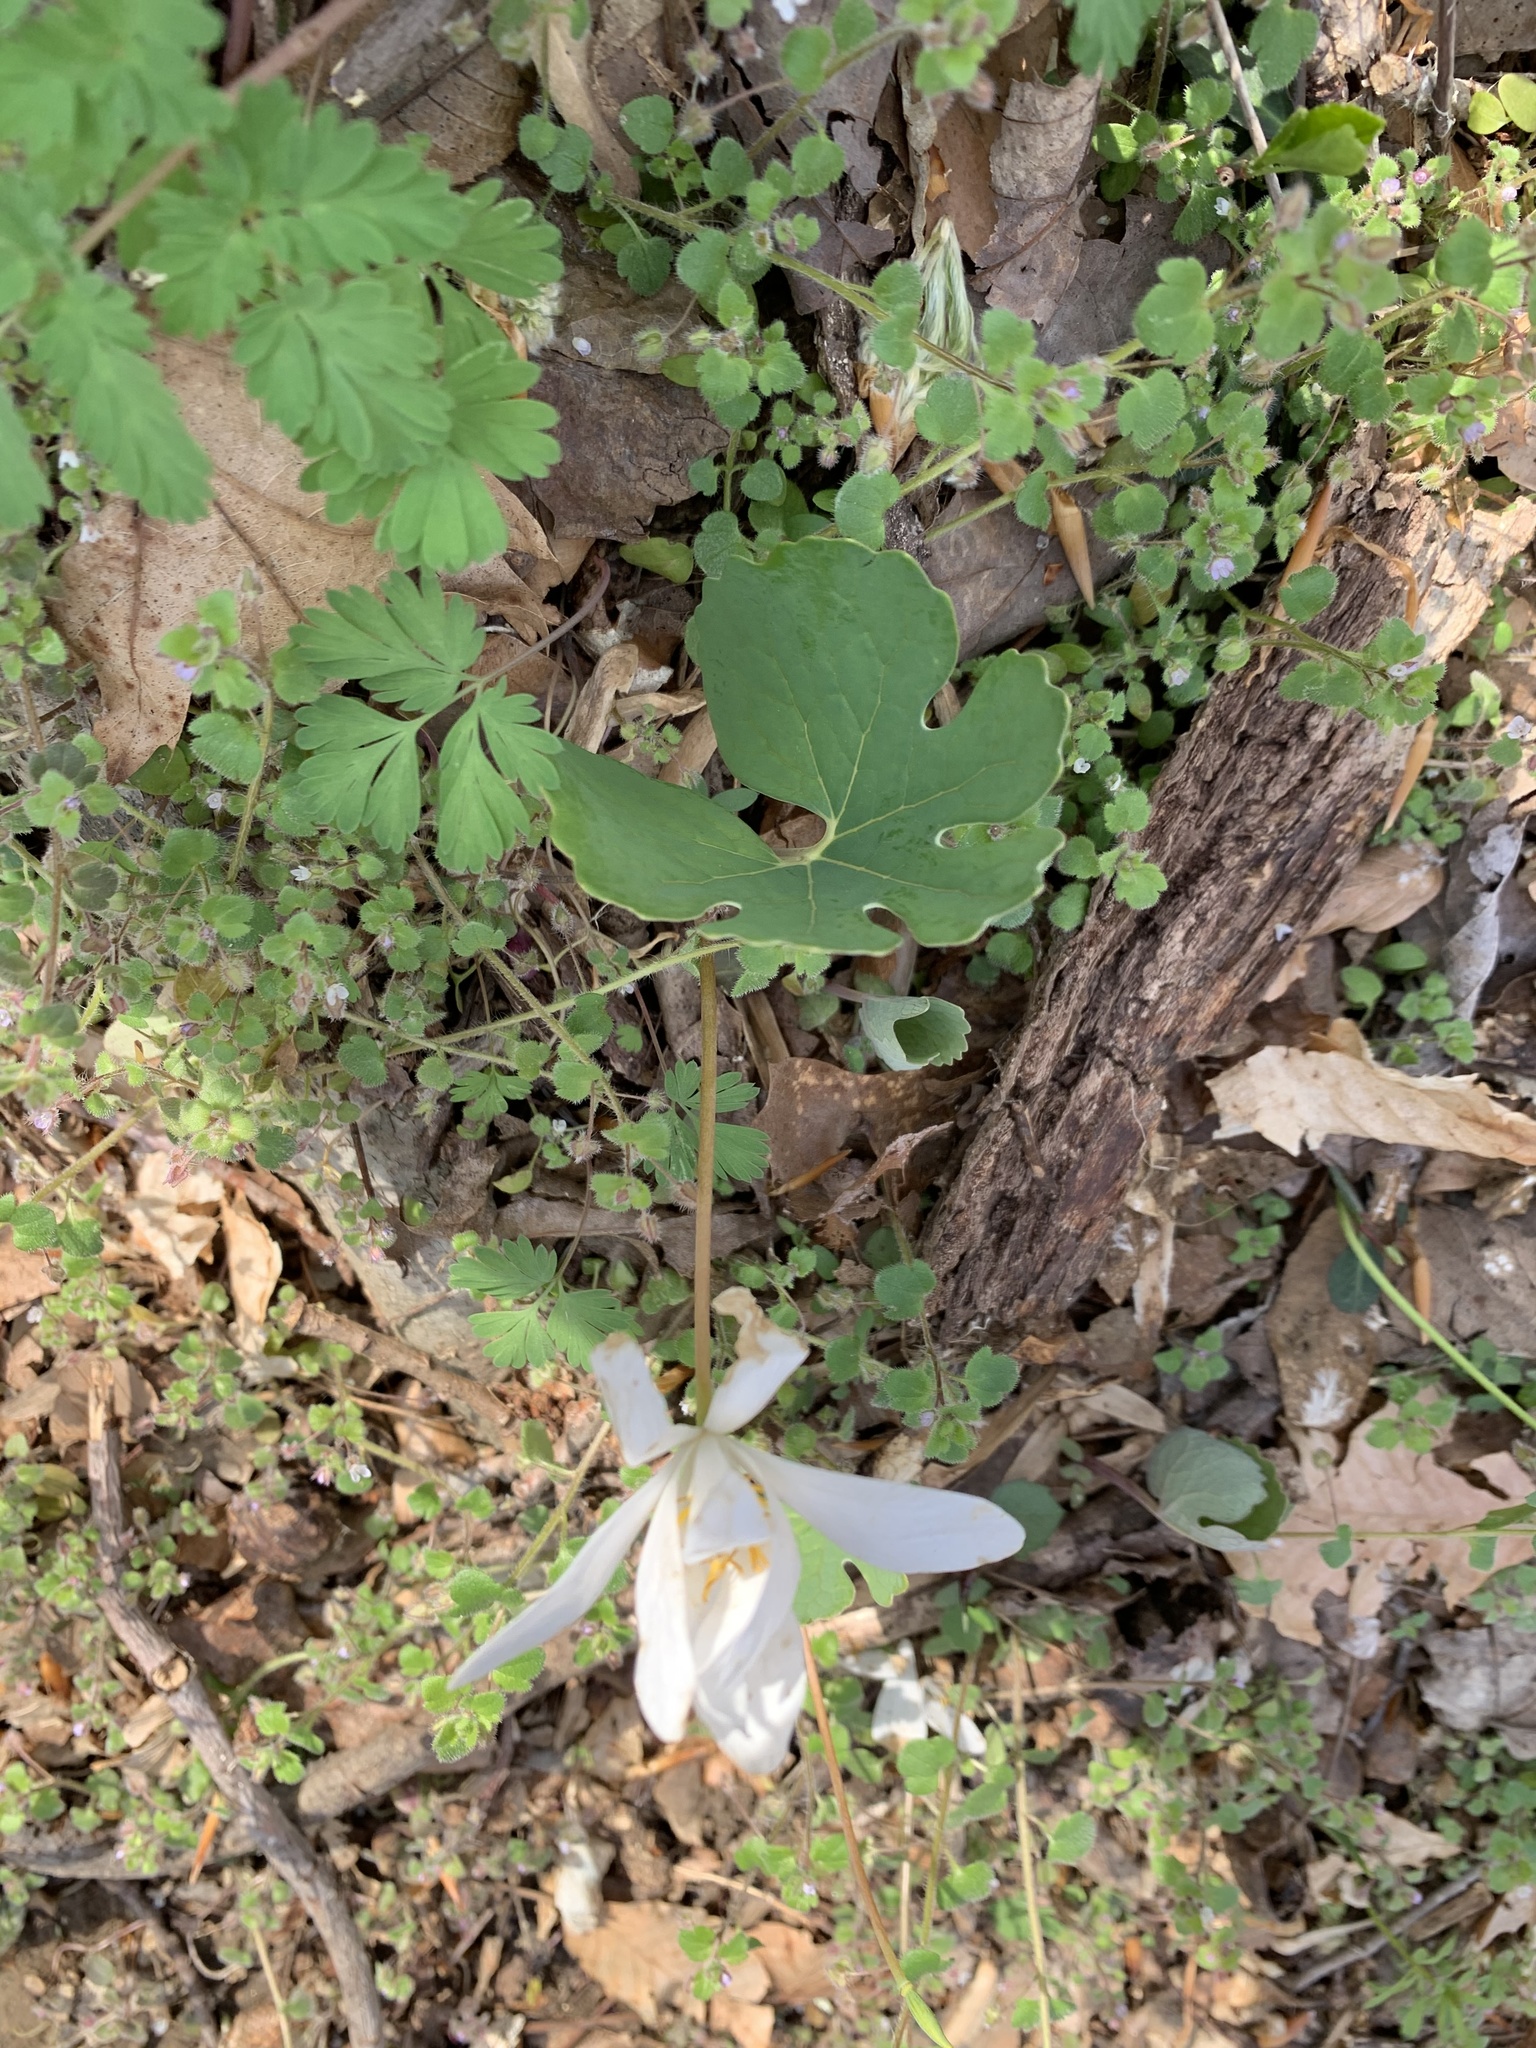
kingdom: Plantae
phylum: Tracheophyta
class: Magnoliopsida
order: Ranunculales
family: Papaveraceae
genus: Sanguinaria
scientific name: Sanguinaria canadensis
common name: Bloodroot
